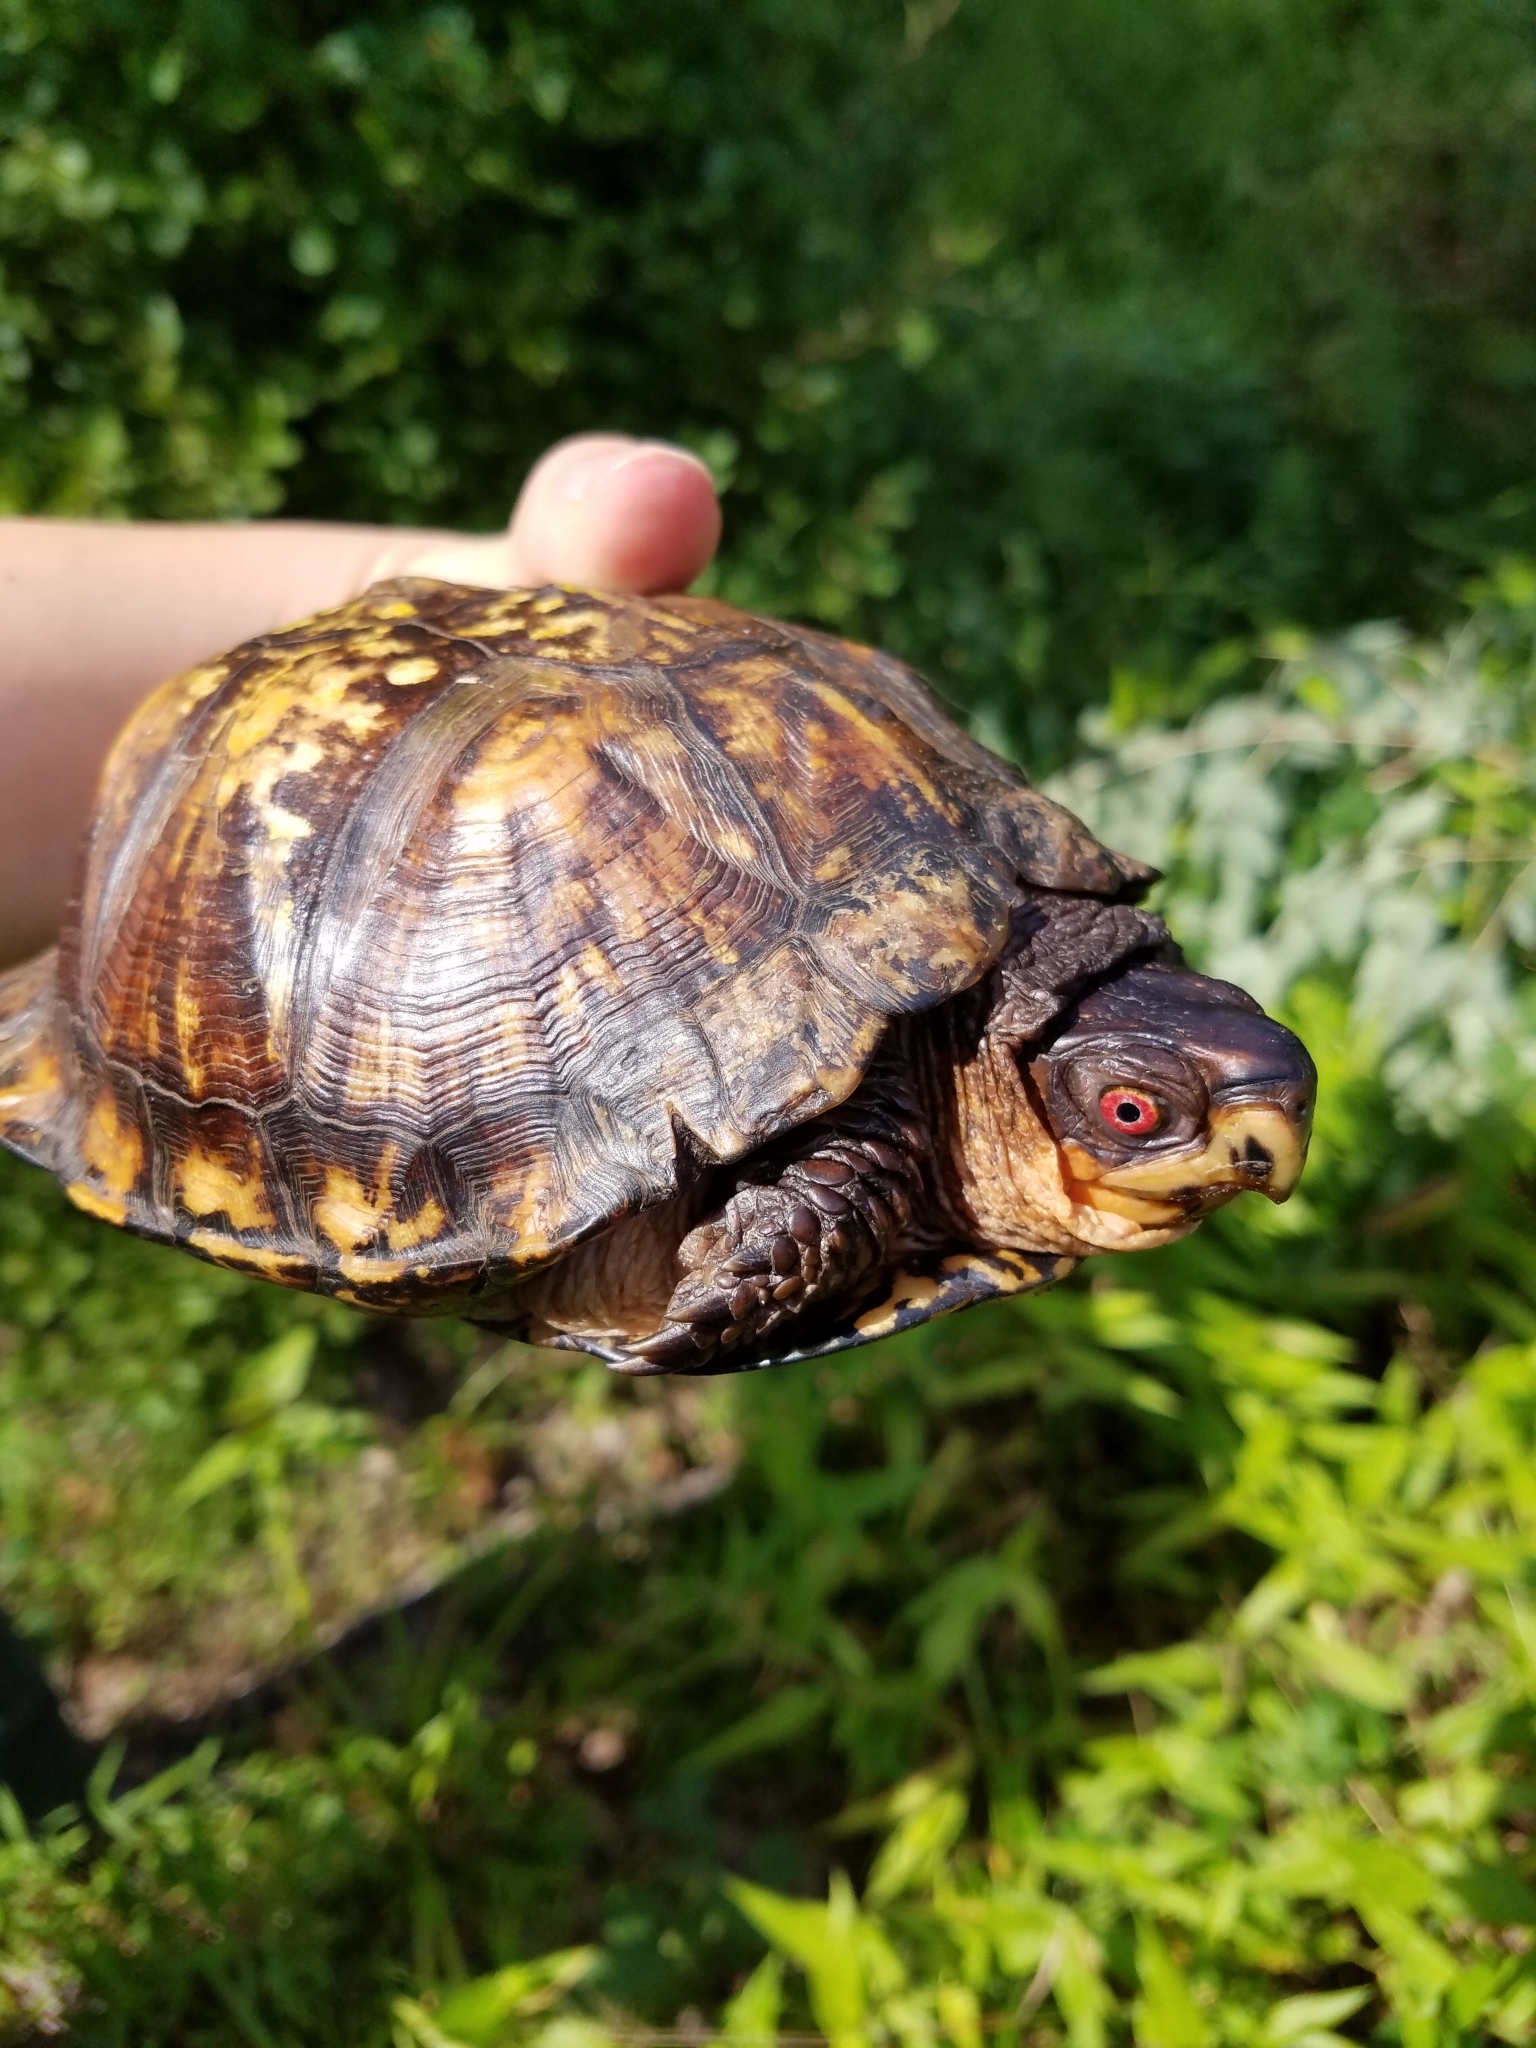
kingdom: Animalia
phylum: Chordata
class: Testudines
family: Emydidae
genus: Terrapene
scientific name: Terrapene carolina
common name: Common box turtle
